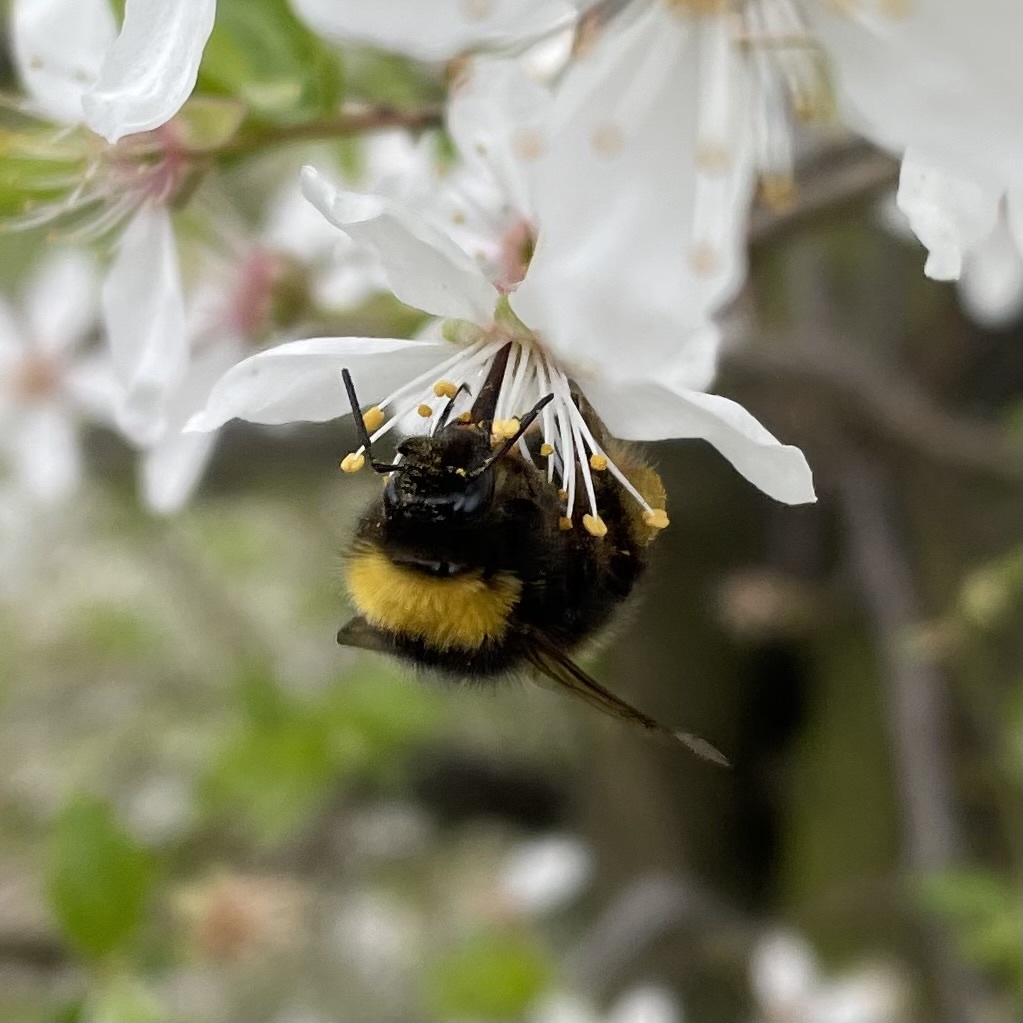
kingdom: Animalia
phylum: Arthropoda
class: Insecta
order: Hymenoptera
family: Apidae
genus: Bombus
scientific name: Bombus pratorum
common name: Early humble-bee
